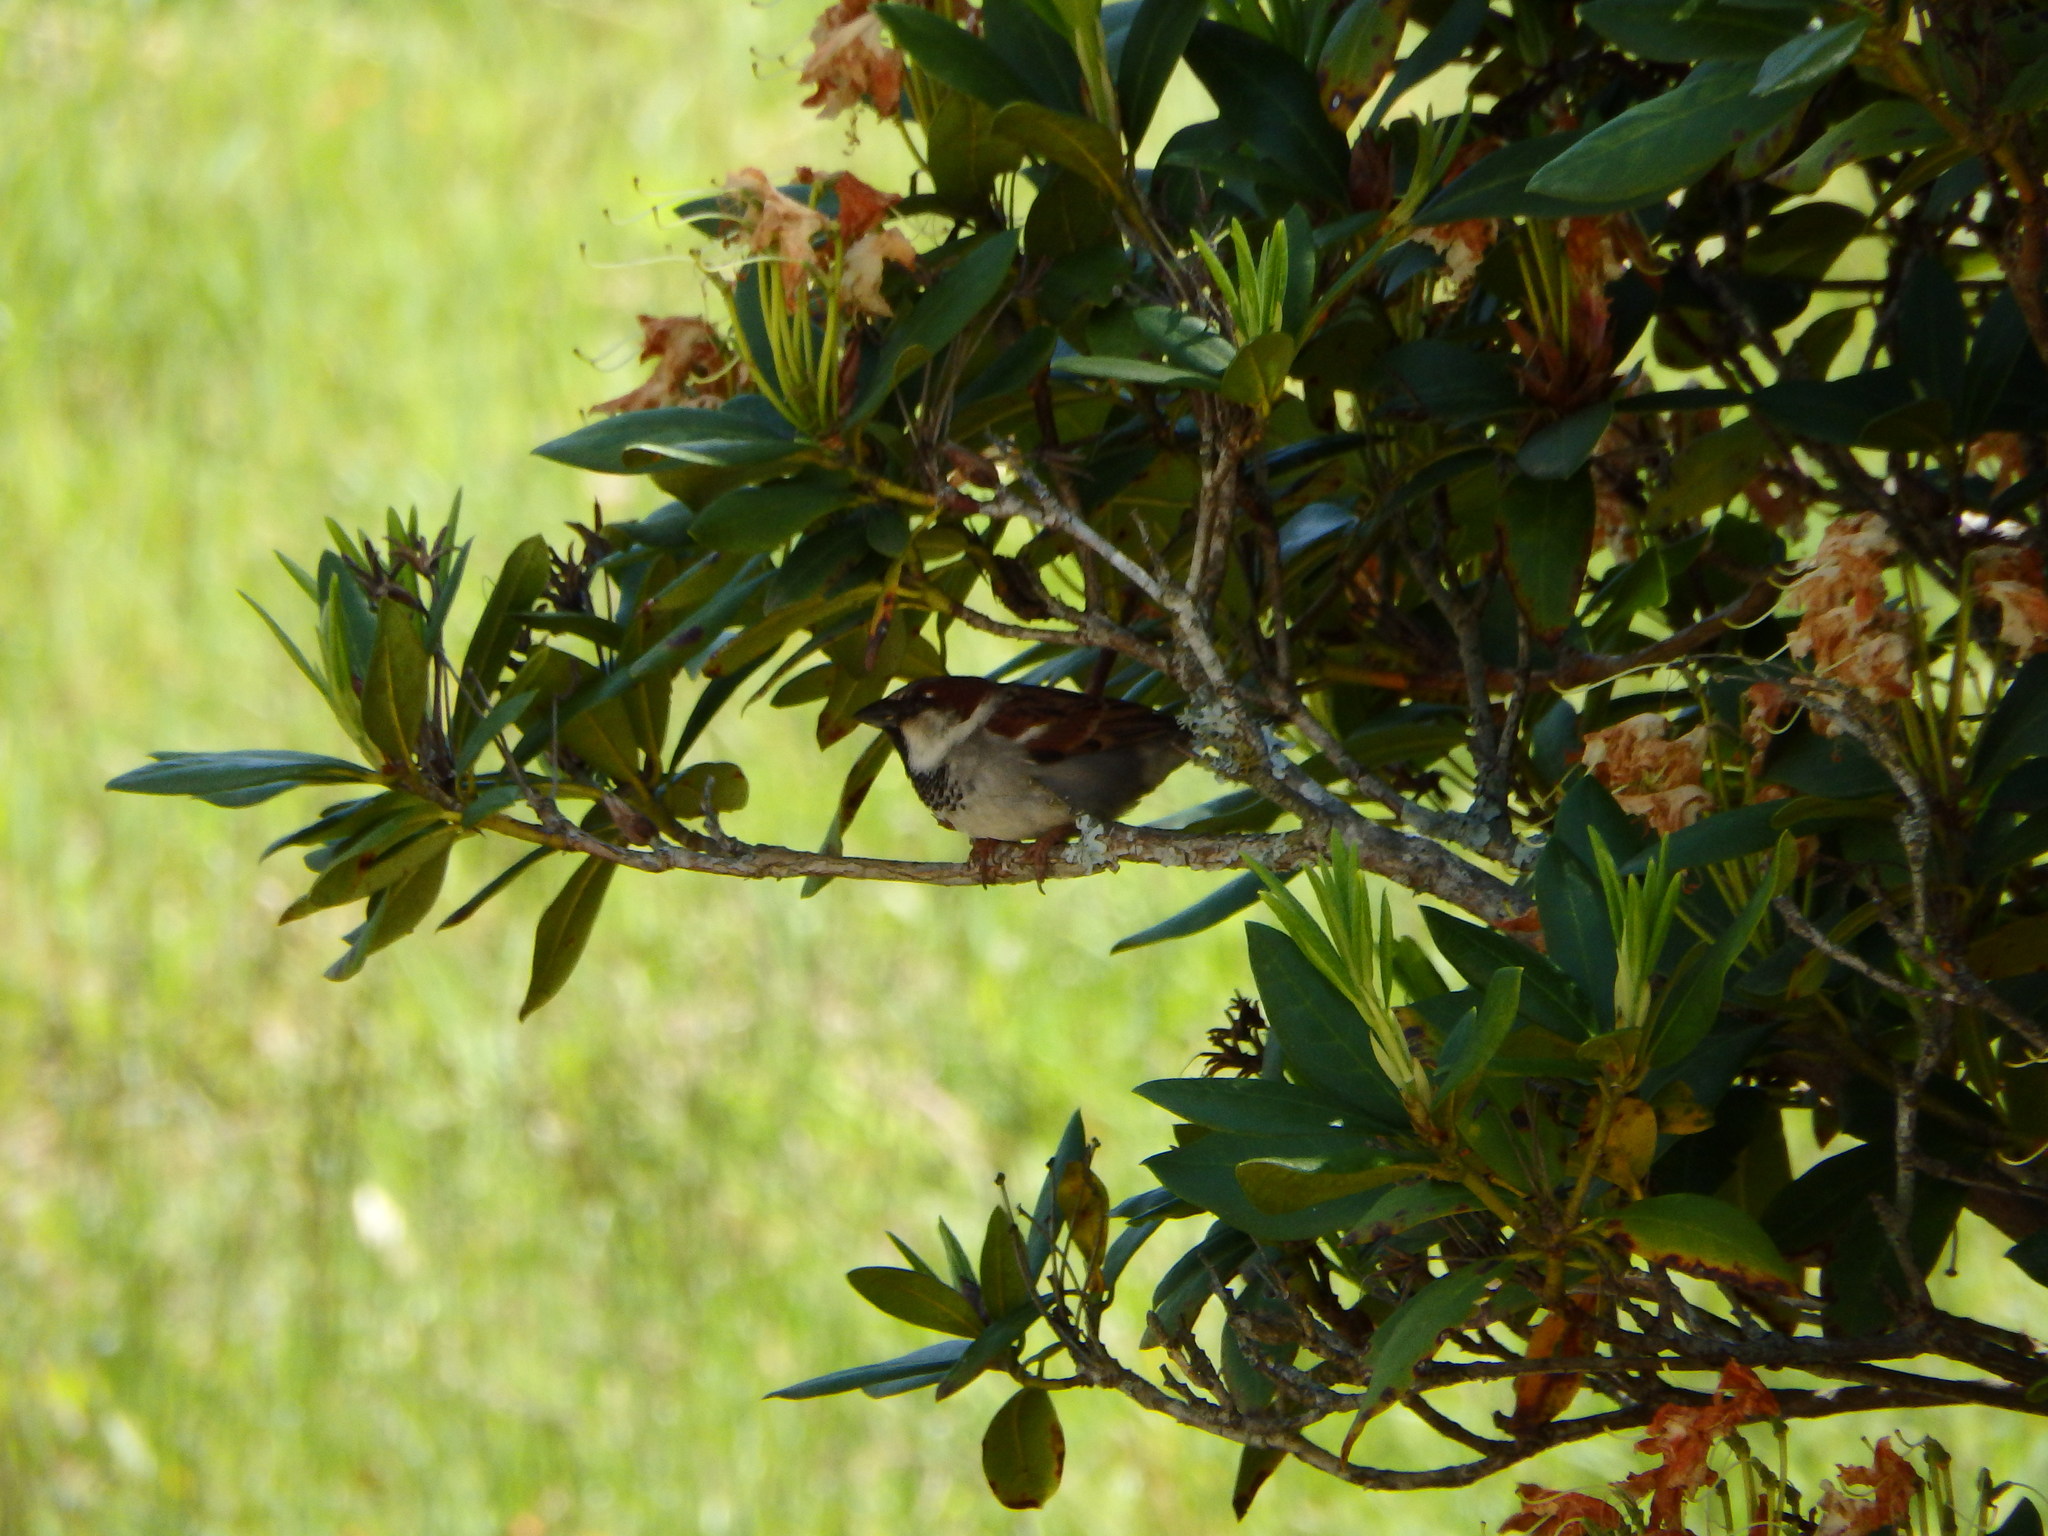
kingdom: Animalia
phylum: Chordata
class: Aves
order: Passeriformes
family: Passeridae
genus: Passer
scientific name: Passer domesticus
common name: House sparrow
